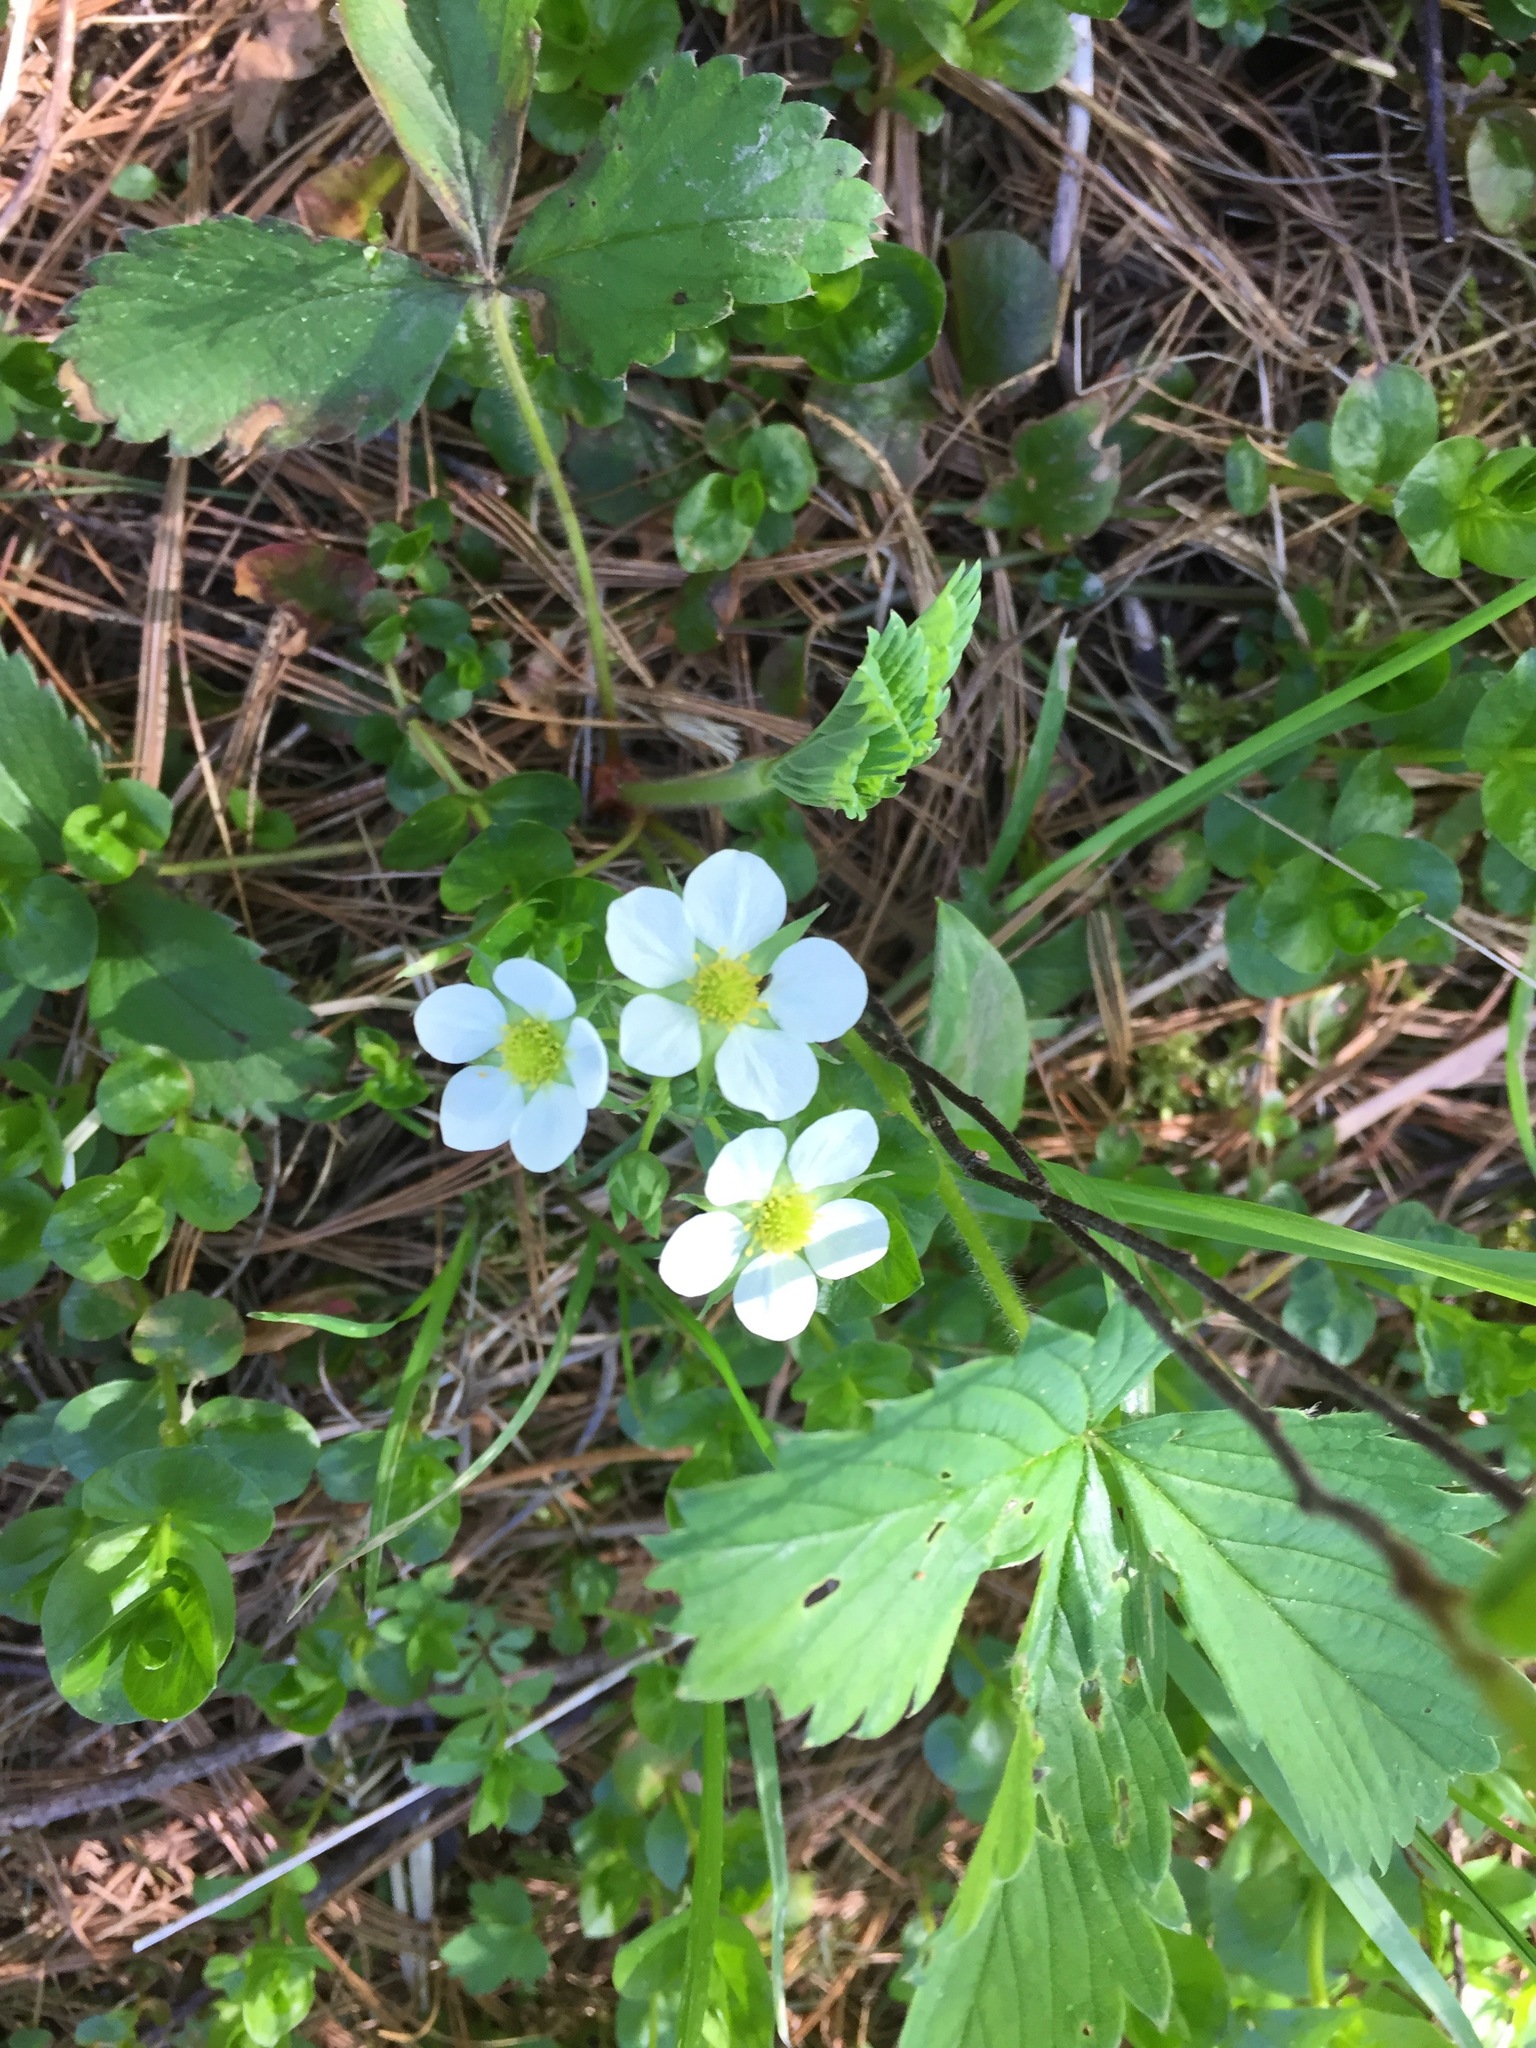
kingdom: Plantae
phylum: Tracheophyta
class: Magnoliopsida
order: Rosales
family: Rosaceae
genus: Fragaria
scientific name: Fragaria virginiana
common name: Thickleaved wild strawberry
